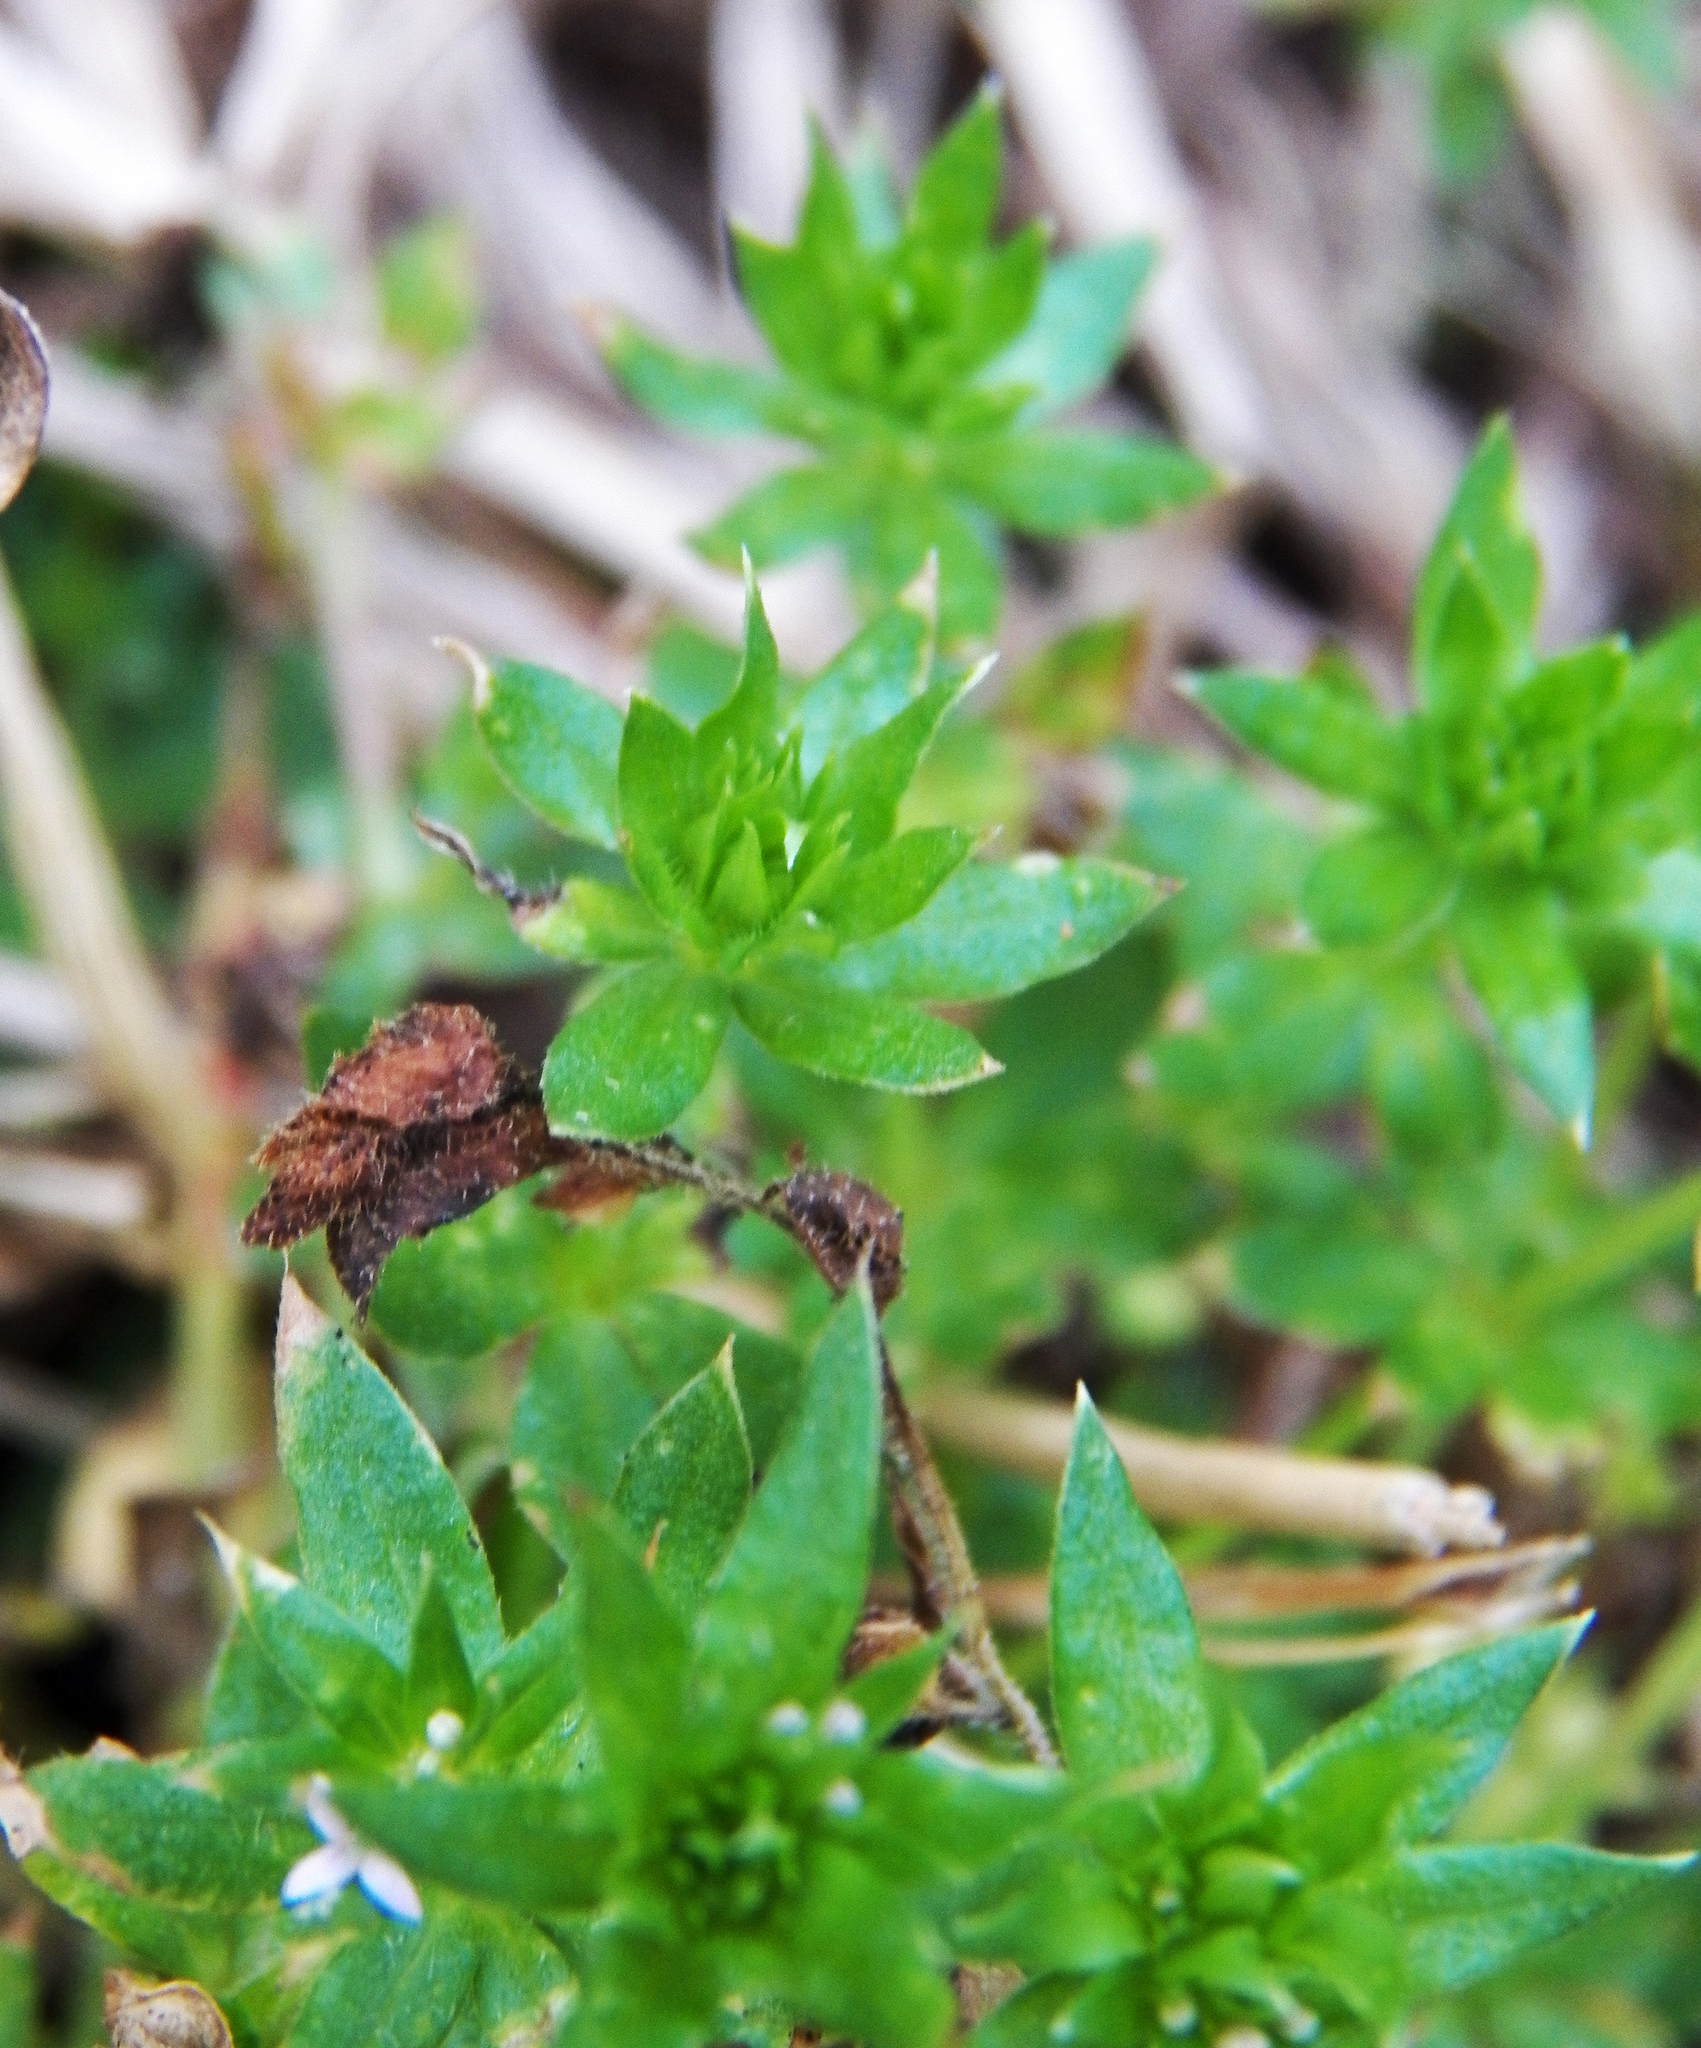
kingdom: Plantae
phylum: Tracheophyta
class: Magnoliopsida
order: Gentianales
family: Rubiaceae
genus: Sherardia
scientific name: Sherardia arvensis
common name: Field madder
